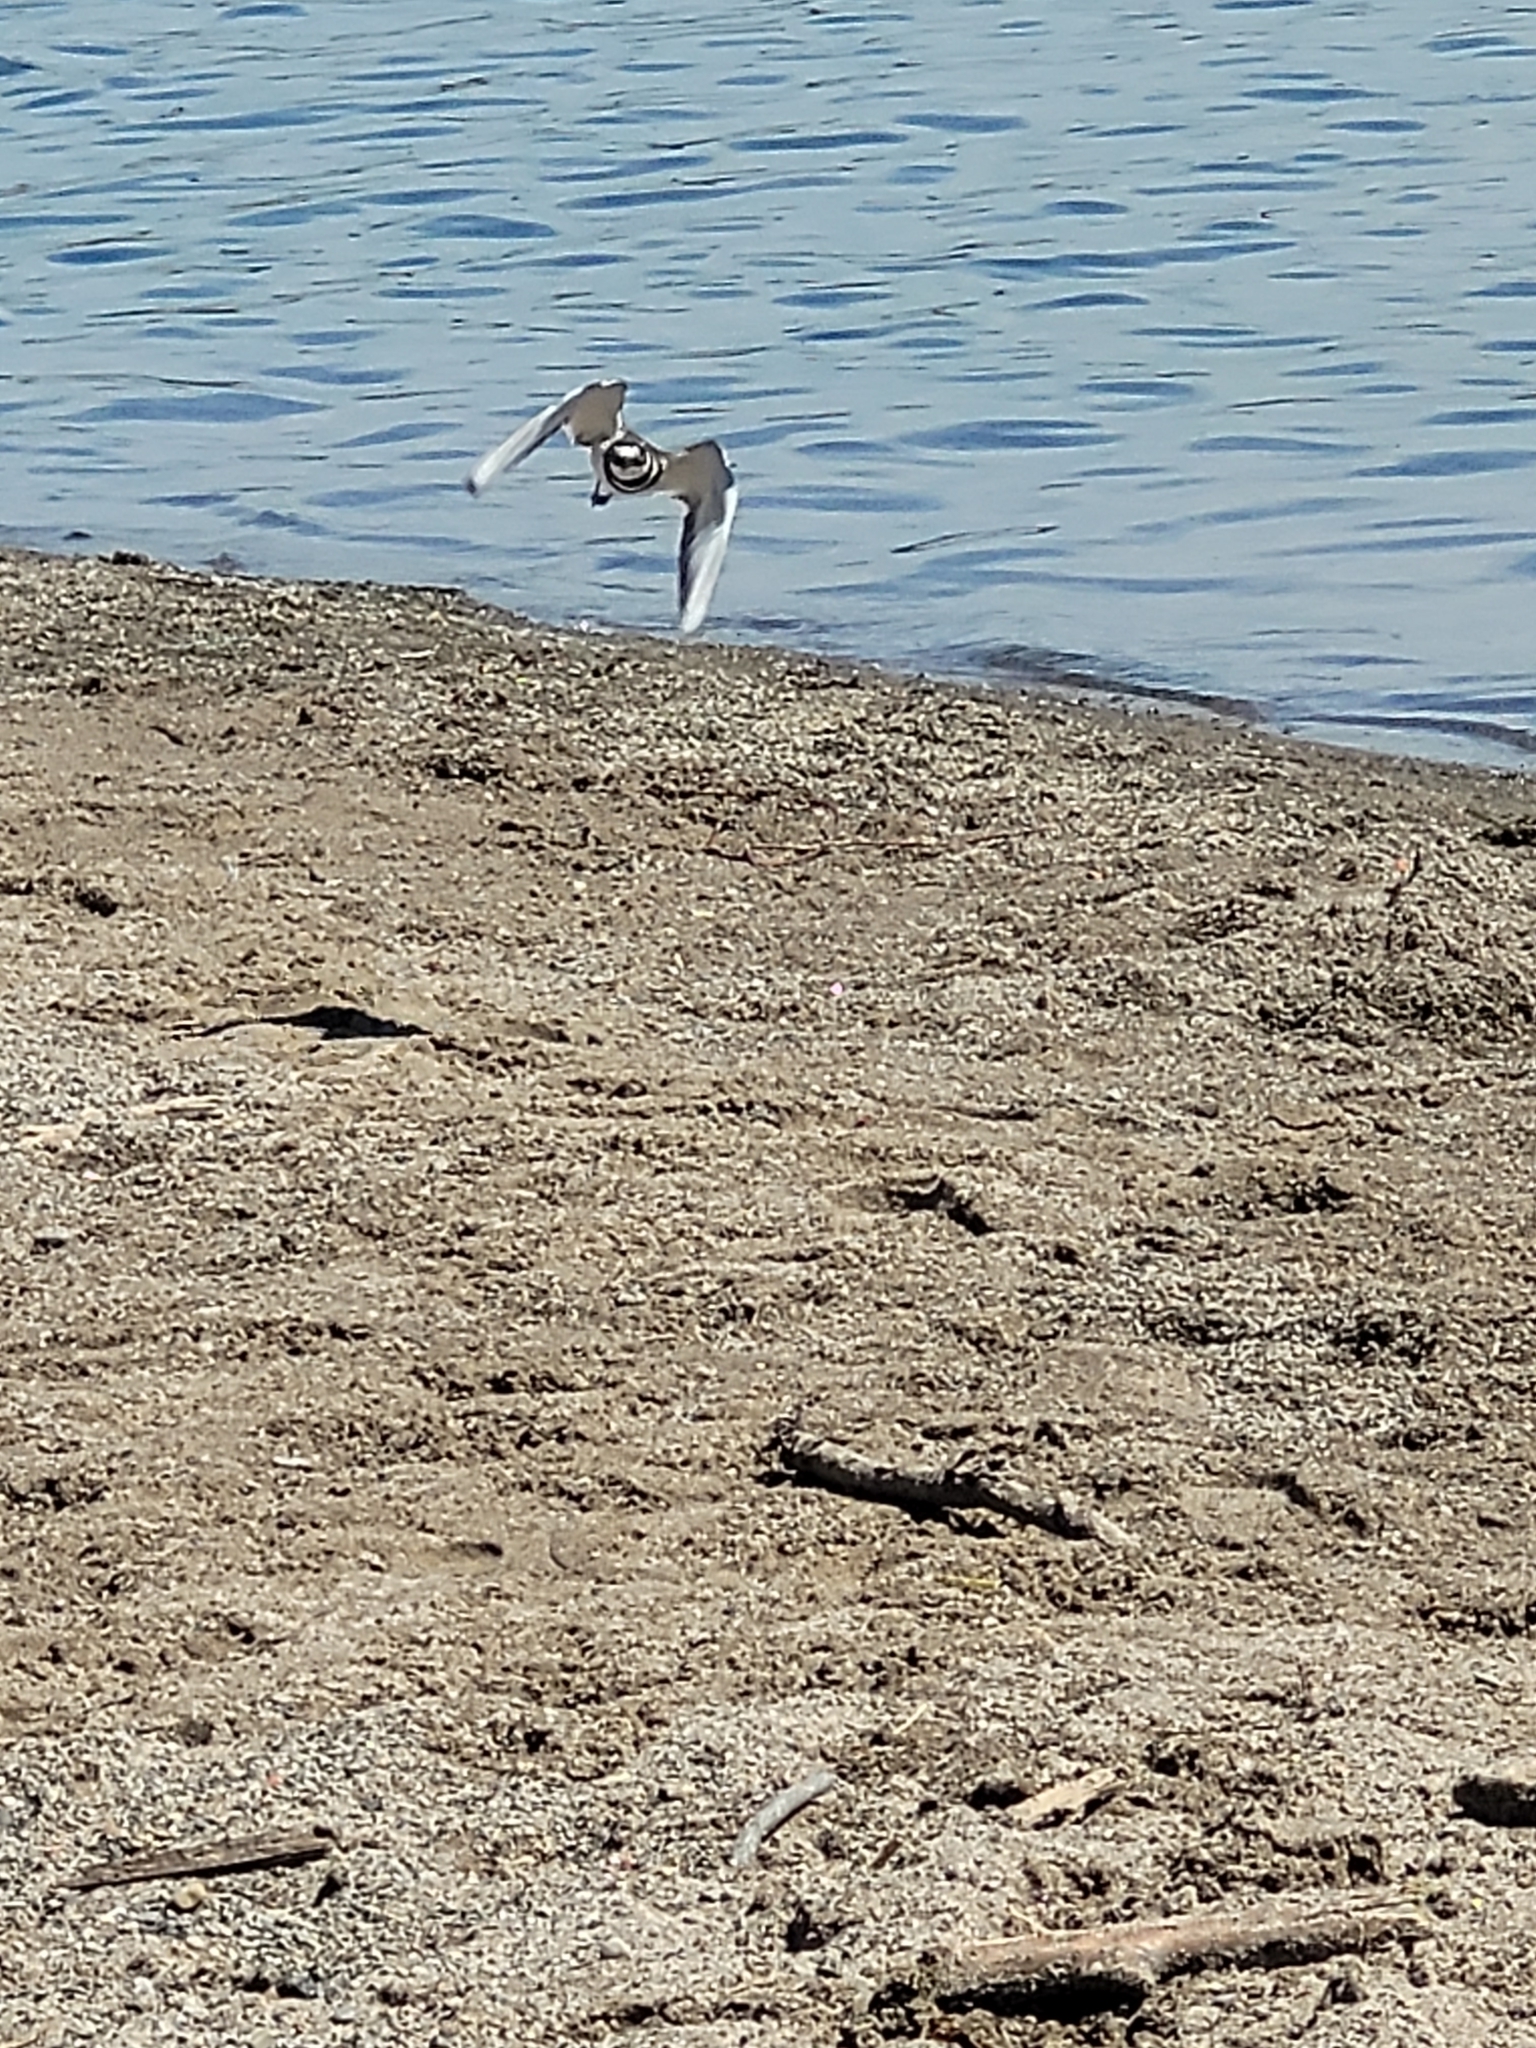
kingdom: Animalia
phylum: Chordata
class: Aves
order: Charadriiformes
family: Charadriidae
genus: Charadrius
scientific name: Charadrius vociferus
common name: Killdeer
